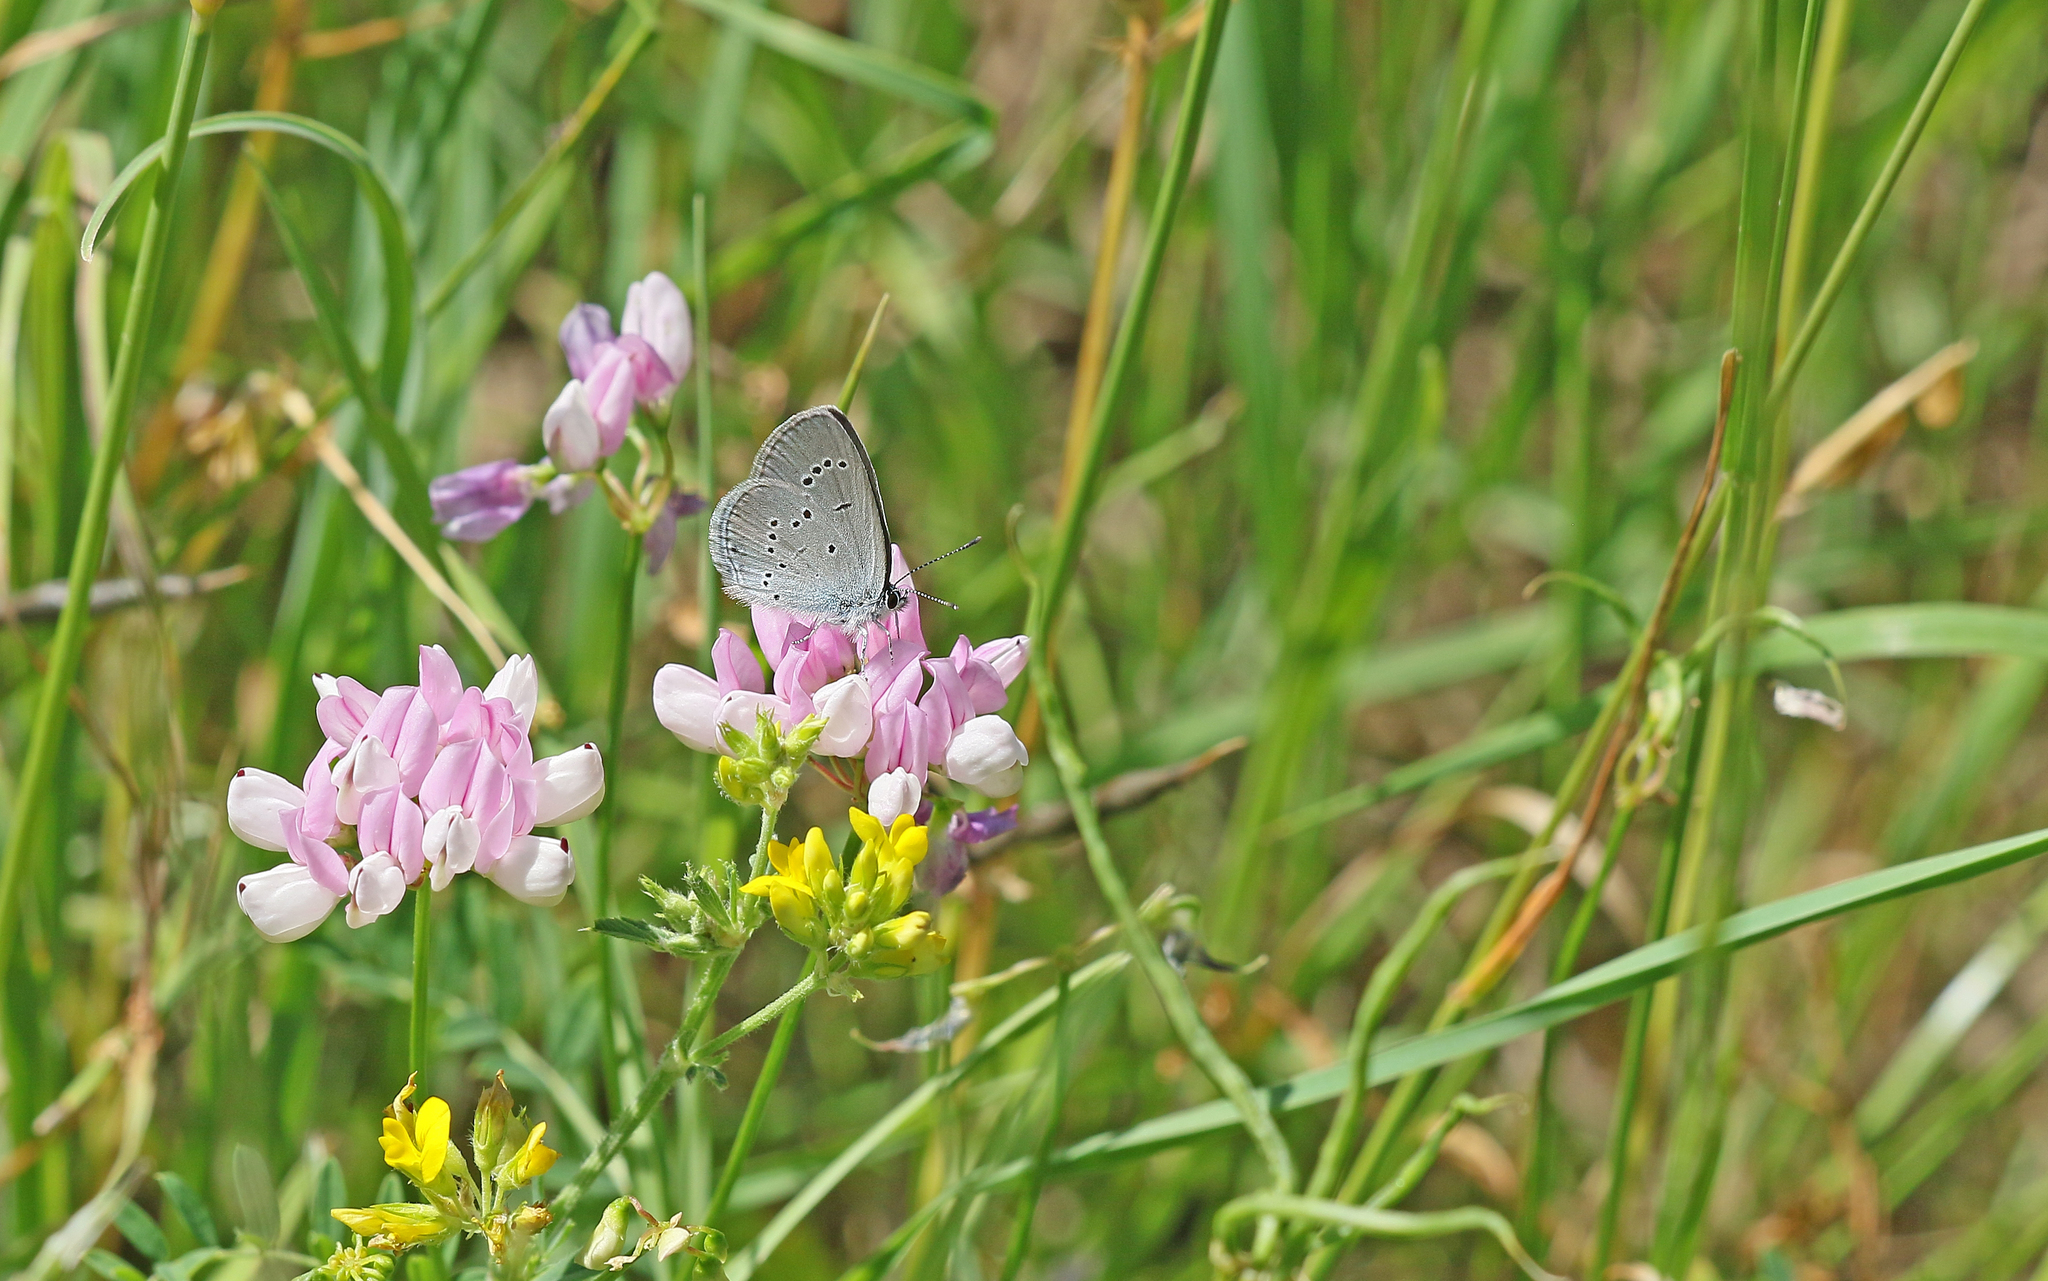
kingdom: Animalia
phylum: Arthropoda
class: Insecta
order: Lepidoptera
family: Lycaenidae
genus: Cupido
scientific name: Cupido minimus
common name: Small blue
